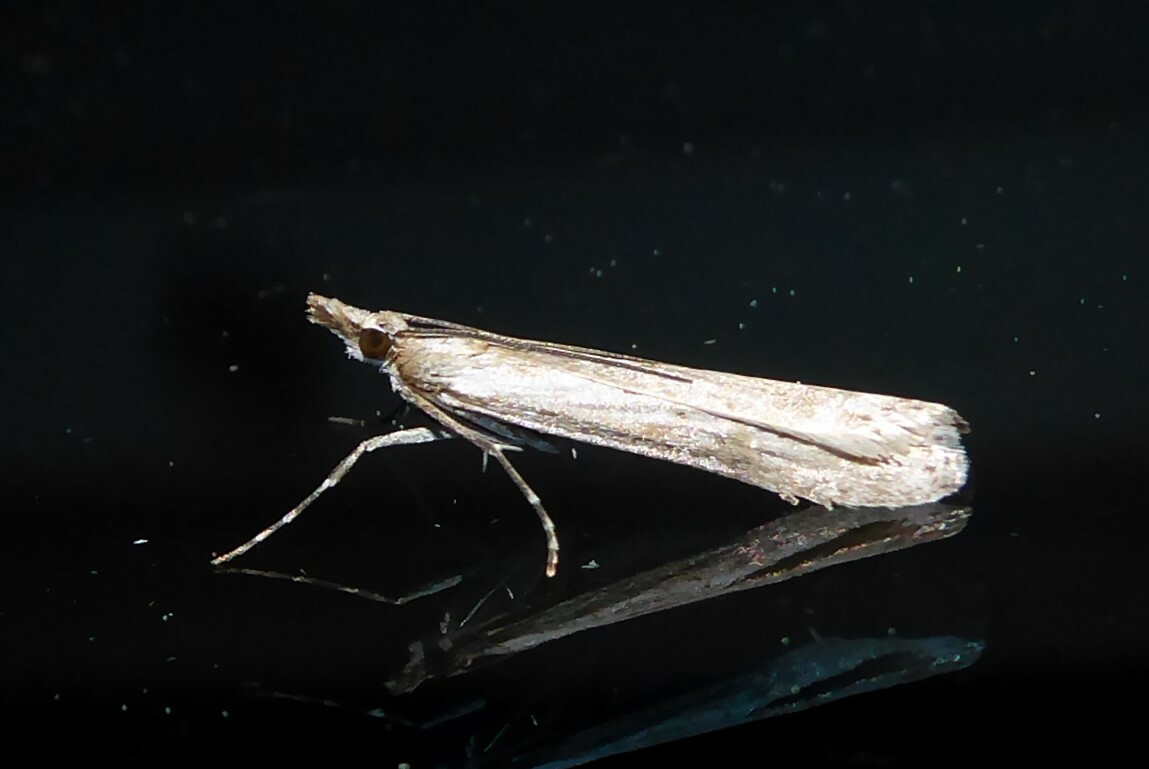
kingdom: Animalia
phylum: Arthropoda
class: Insecta
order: Lepidoptera
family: Crambidae
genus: Eudonia
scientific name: Eudonia leptalea
